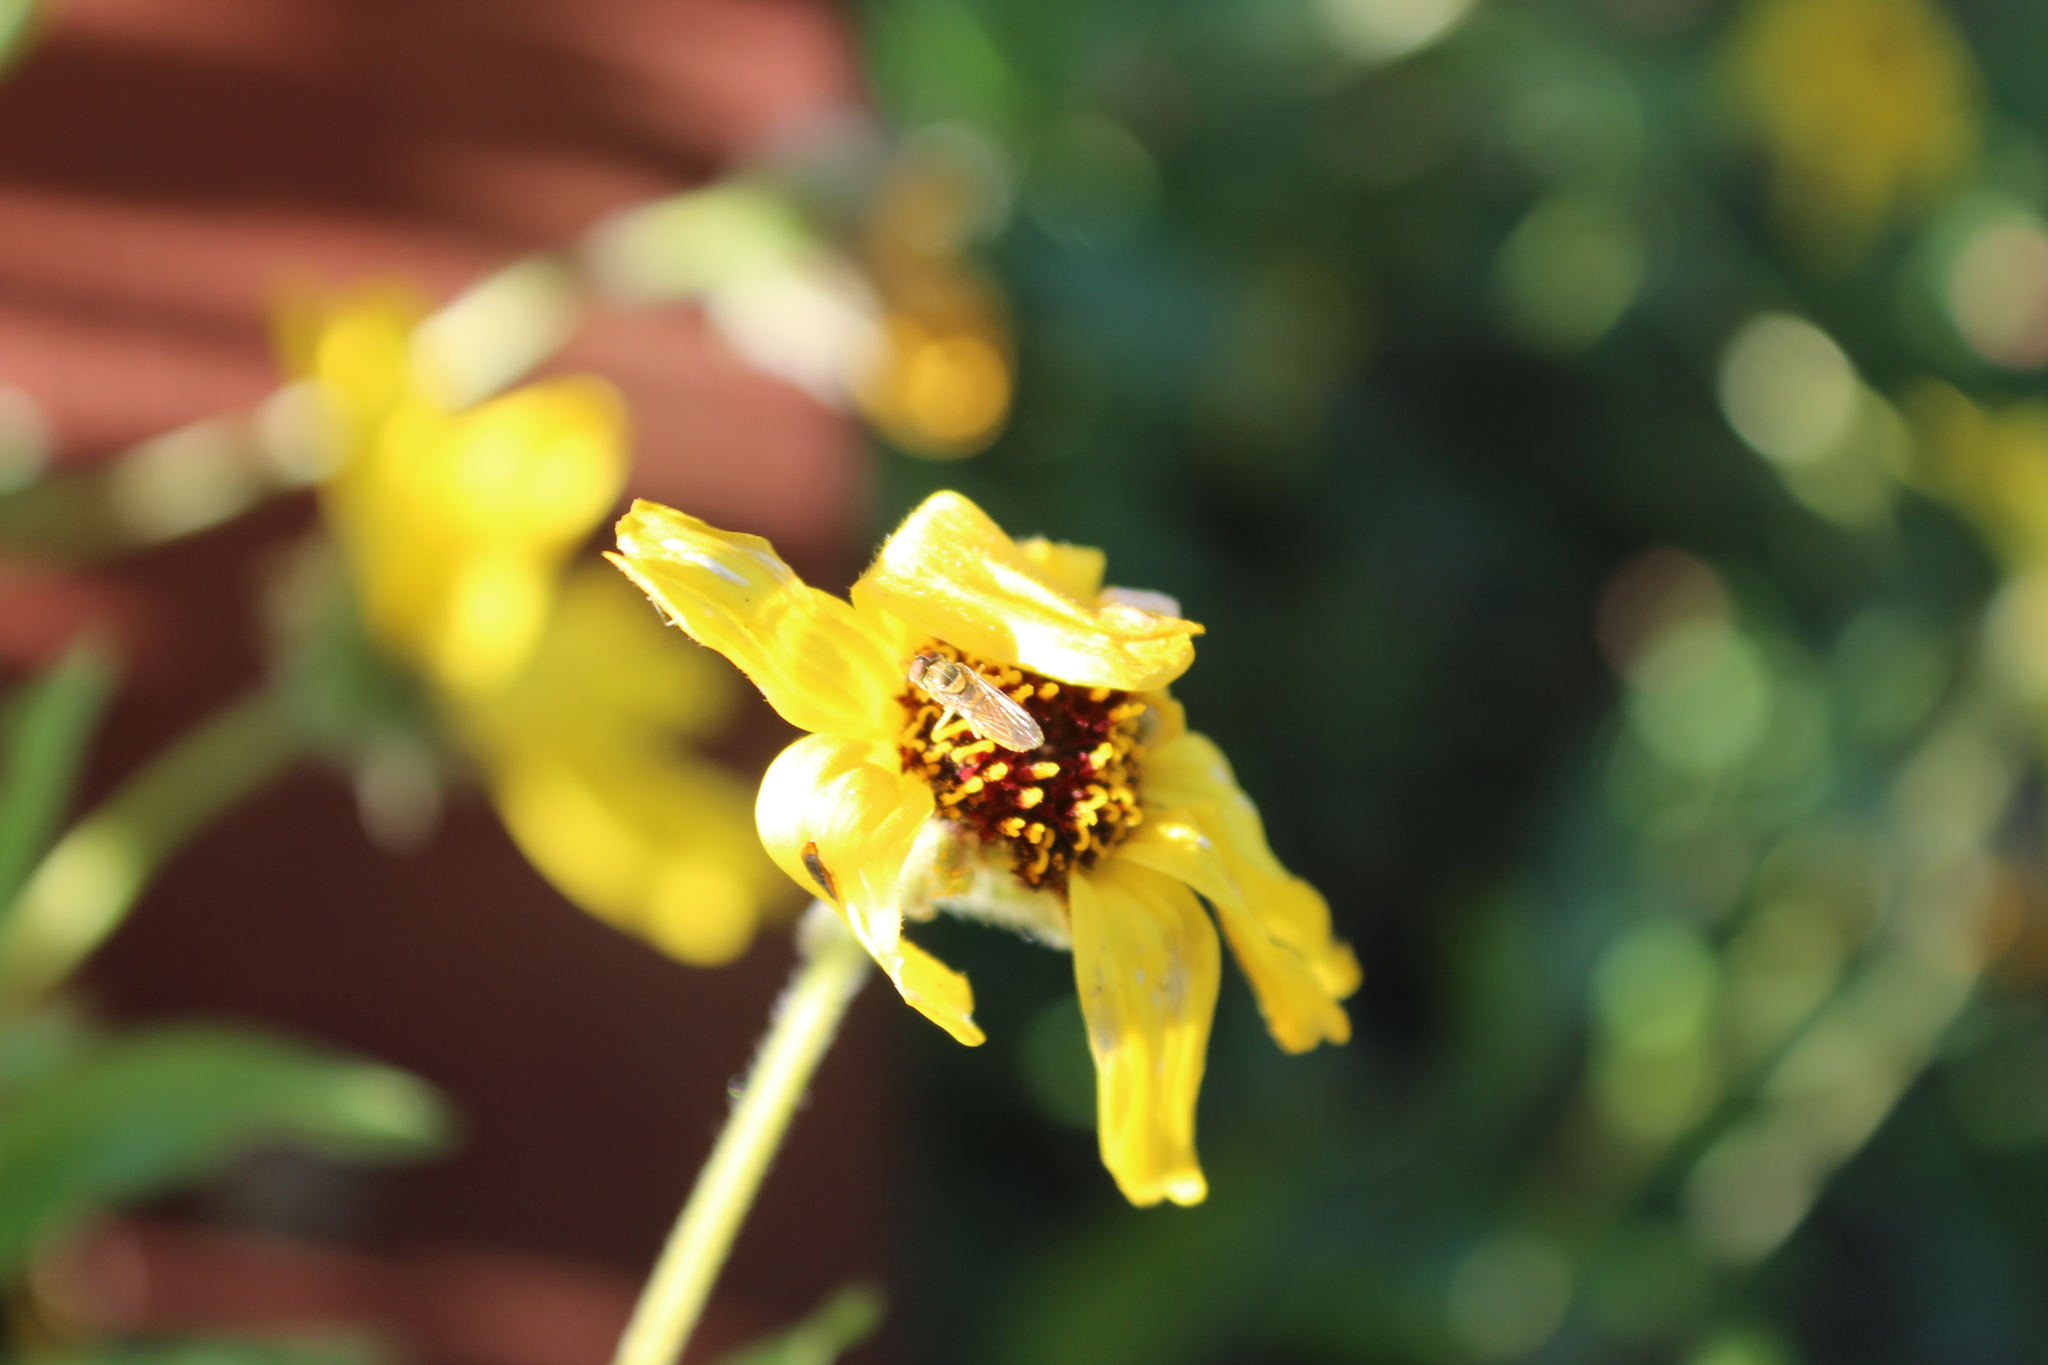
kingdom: Animalia
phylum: Arthropoda
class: Insecta
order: Diptera
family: Syrphidae
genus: Toxomerus
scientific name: Toxomerus marginatus
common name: Syrphid fly
